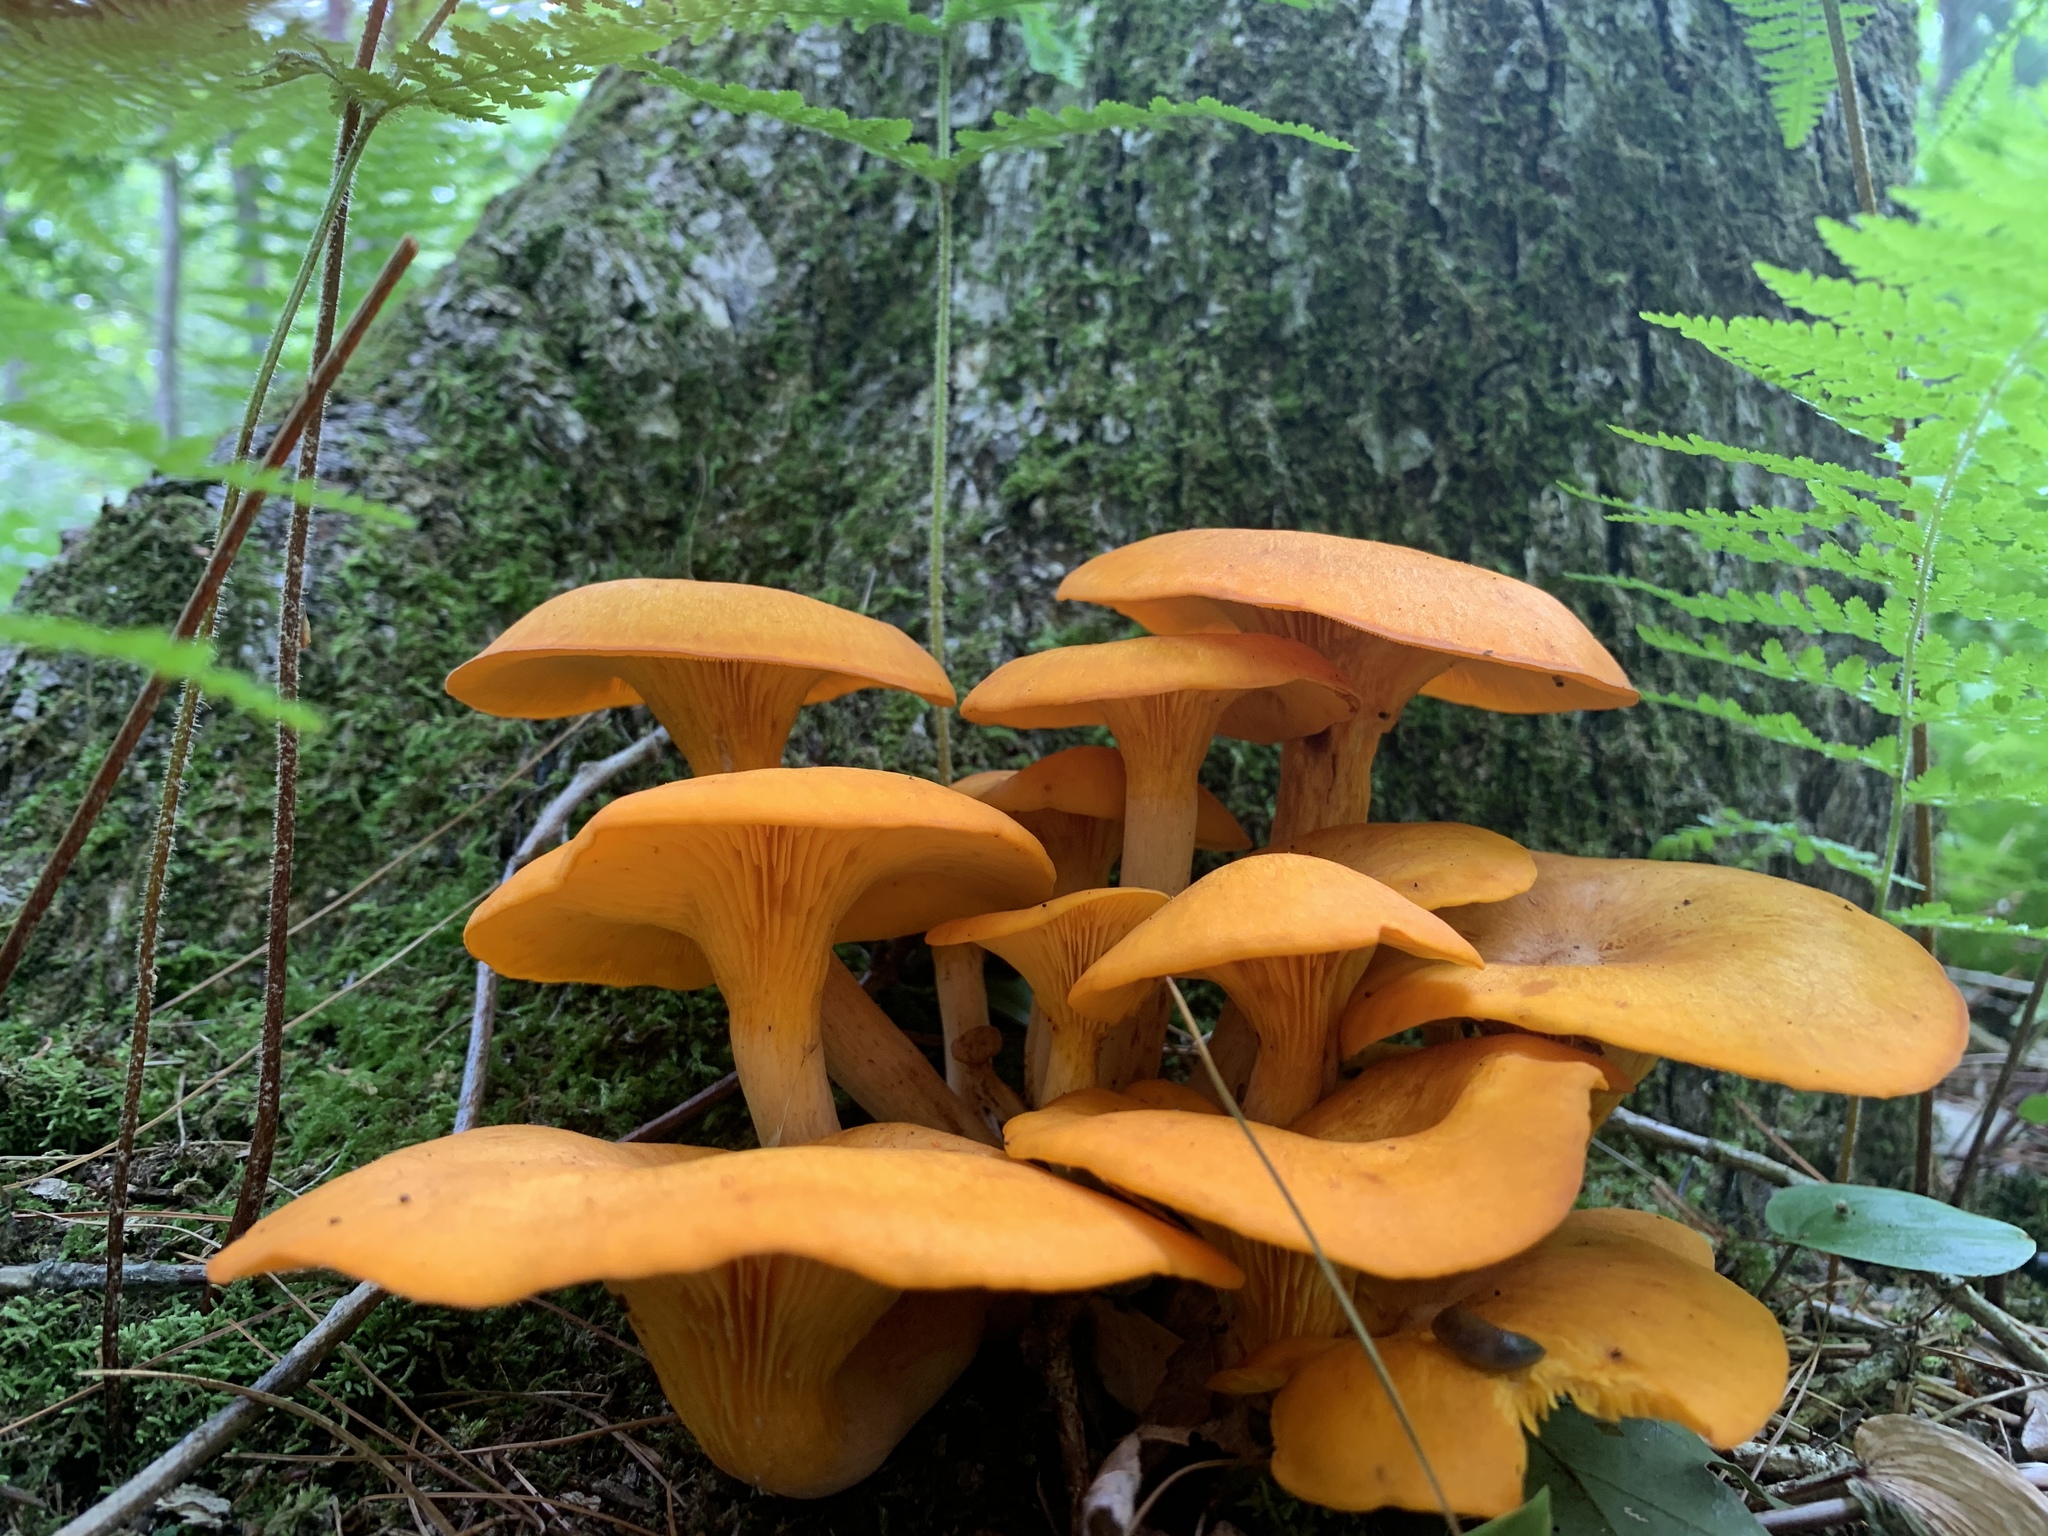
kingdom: Fungi
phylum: Basidiomycota
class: Agaricomycetes
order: Agaricales
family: Omphalotaceae
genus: Omphalotus
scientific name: Omphalotus illudens
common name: Jack o lantern
